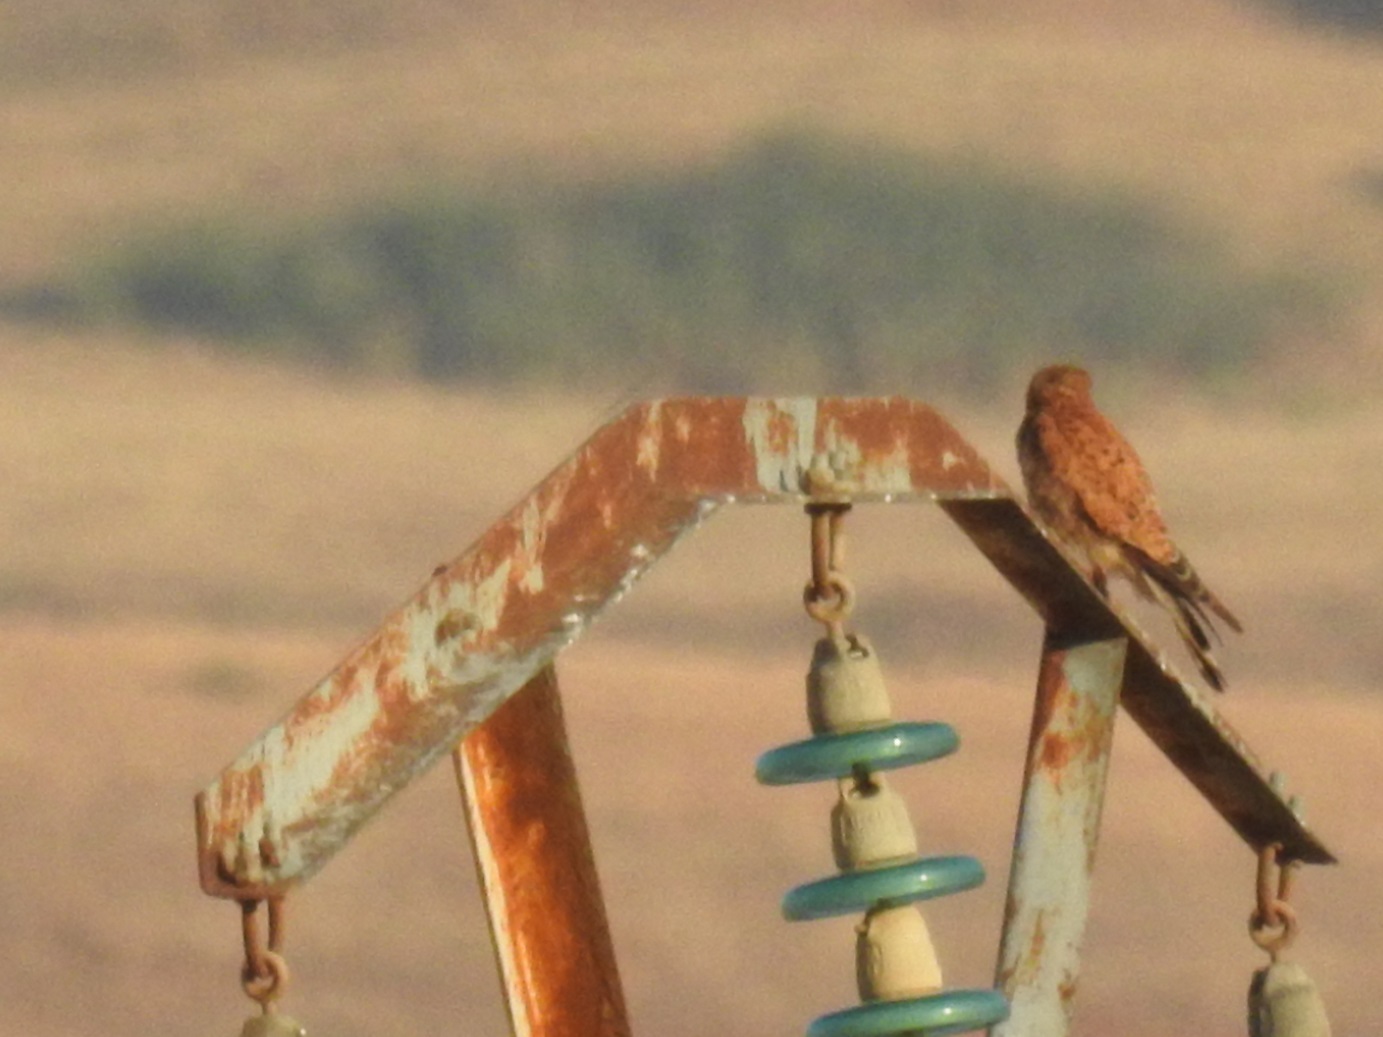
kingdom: Animalia
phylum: Chordata
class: Aves
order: Falconiformes
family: Falconidae
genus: Falco
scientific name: Falco tinnunculus
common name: Common kestrel
